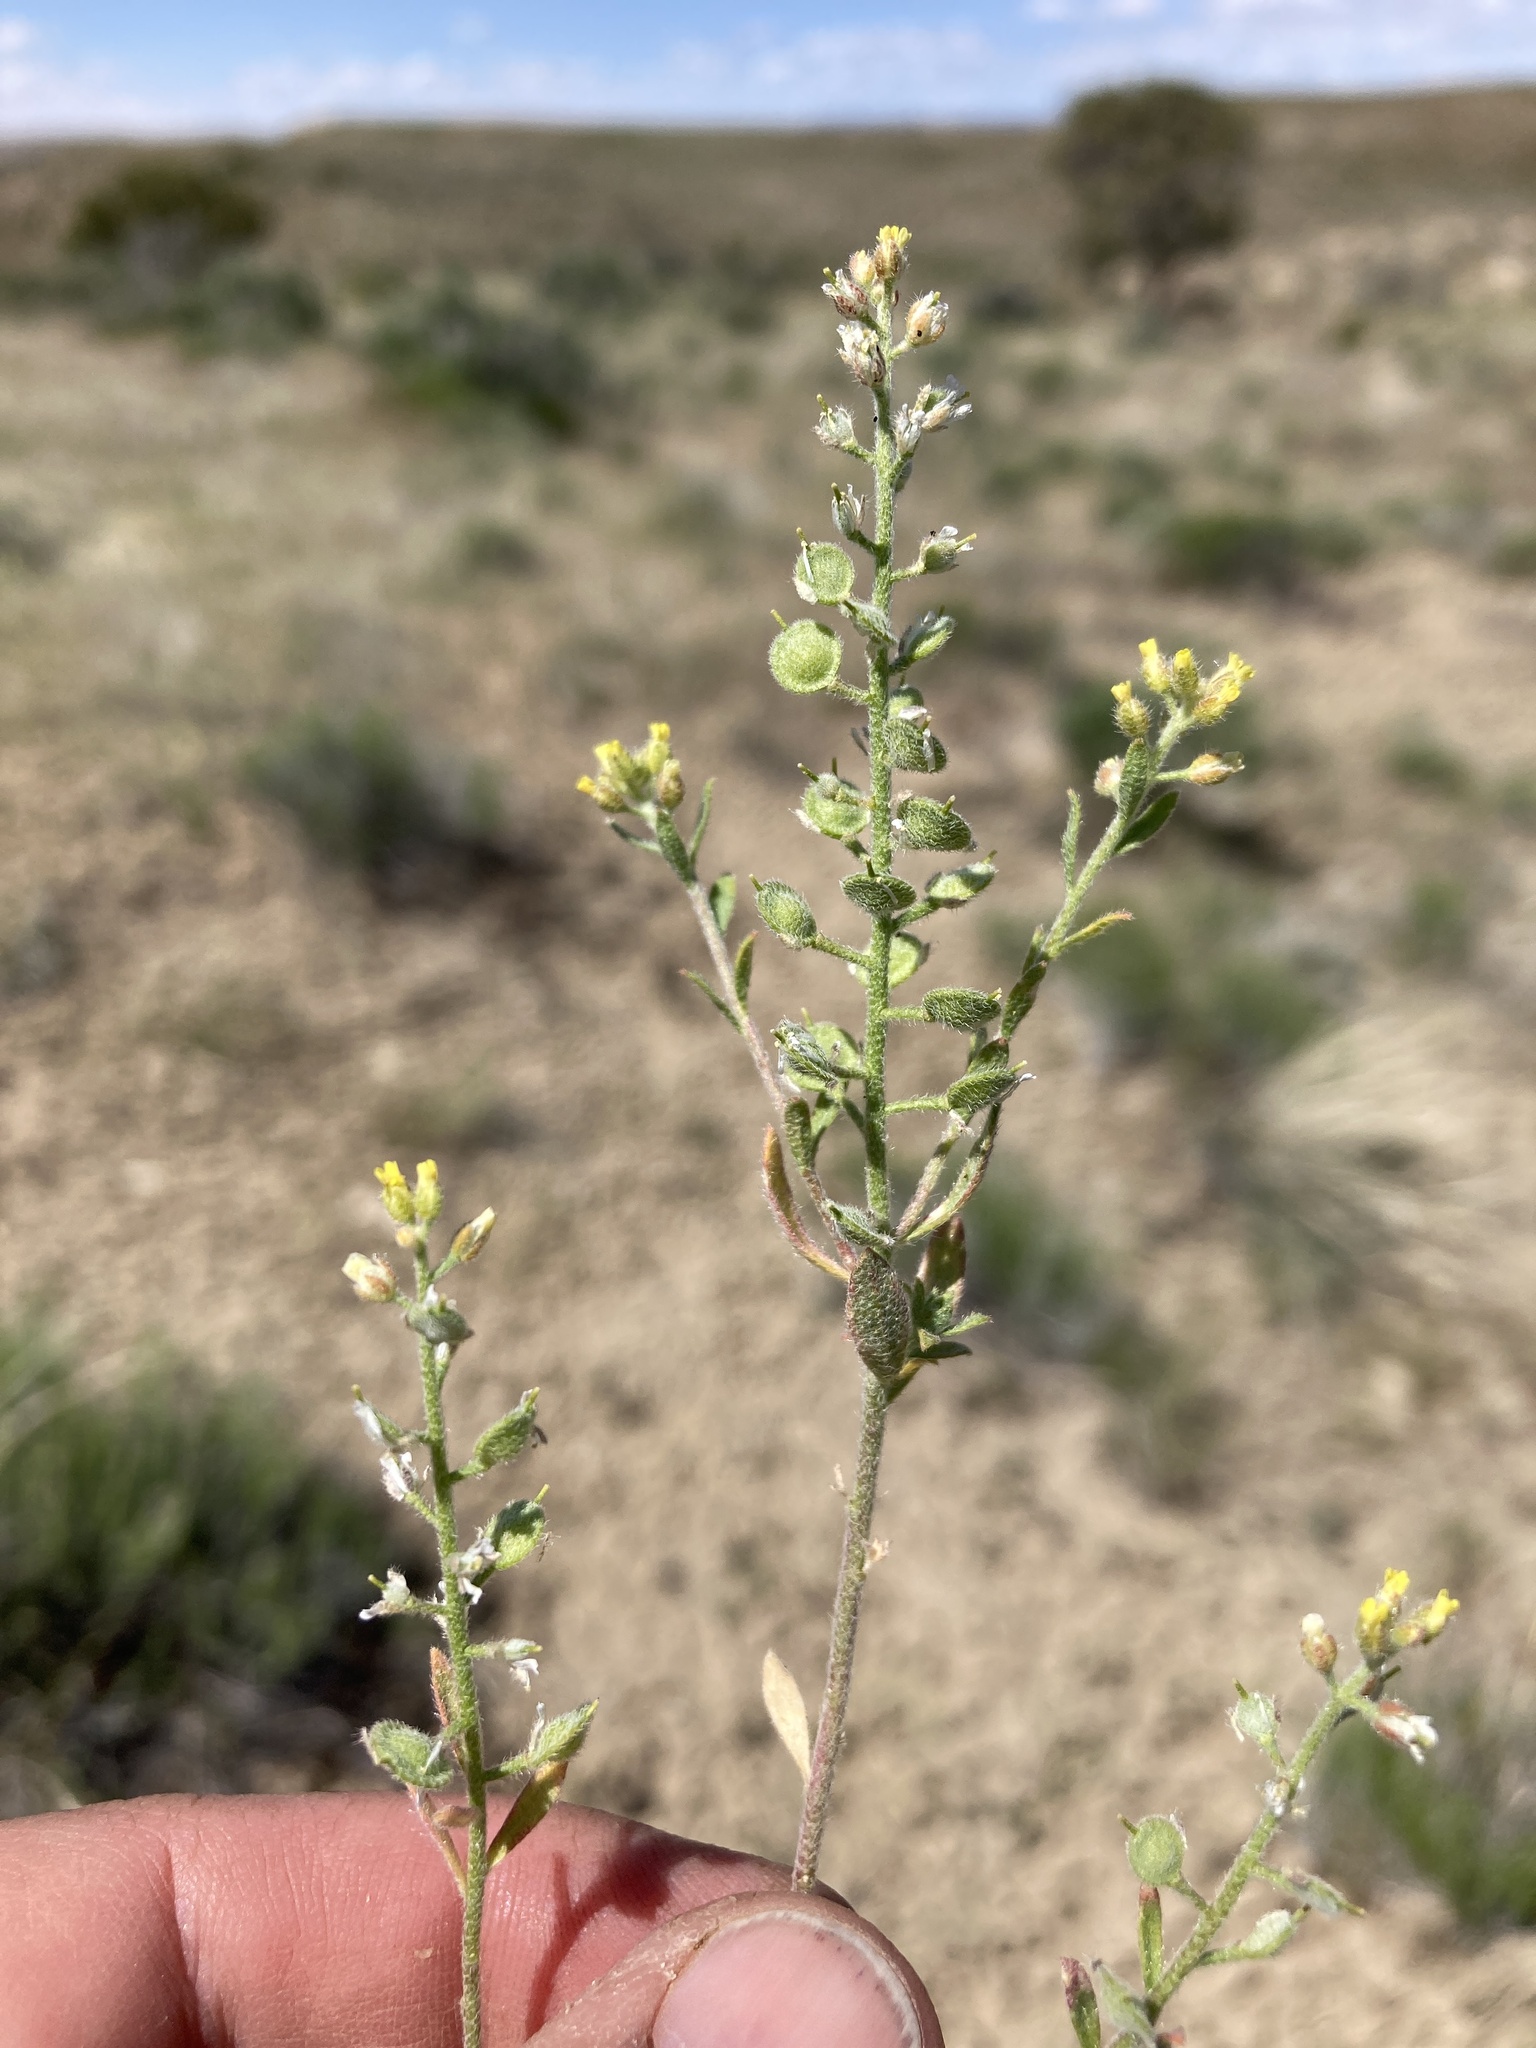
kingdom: Plantae
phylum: Tracheophyta
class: Magnoliopsida
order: Brassicales
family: Brassicaceae
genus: Alyssum
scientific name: Alyssum simplex
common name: Alyssum
